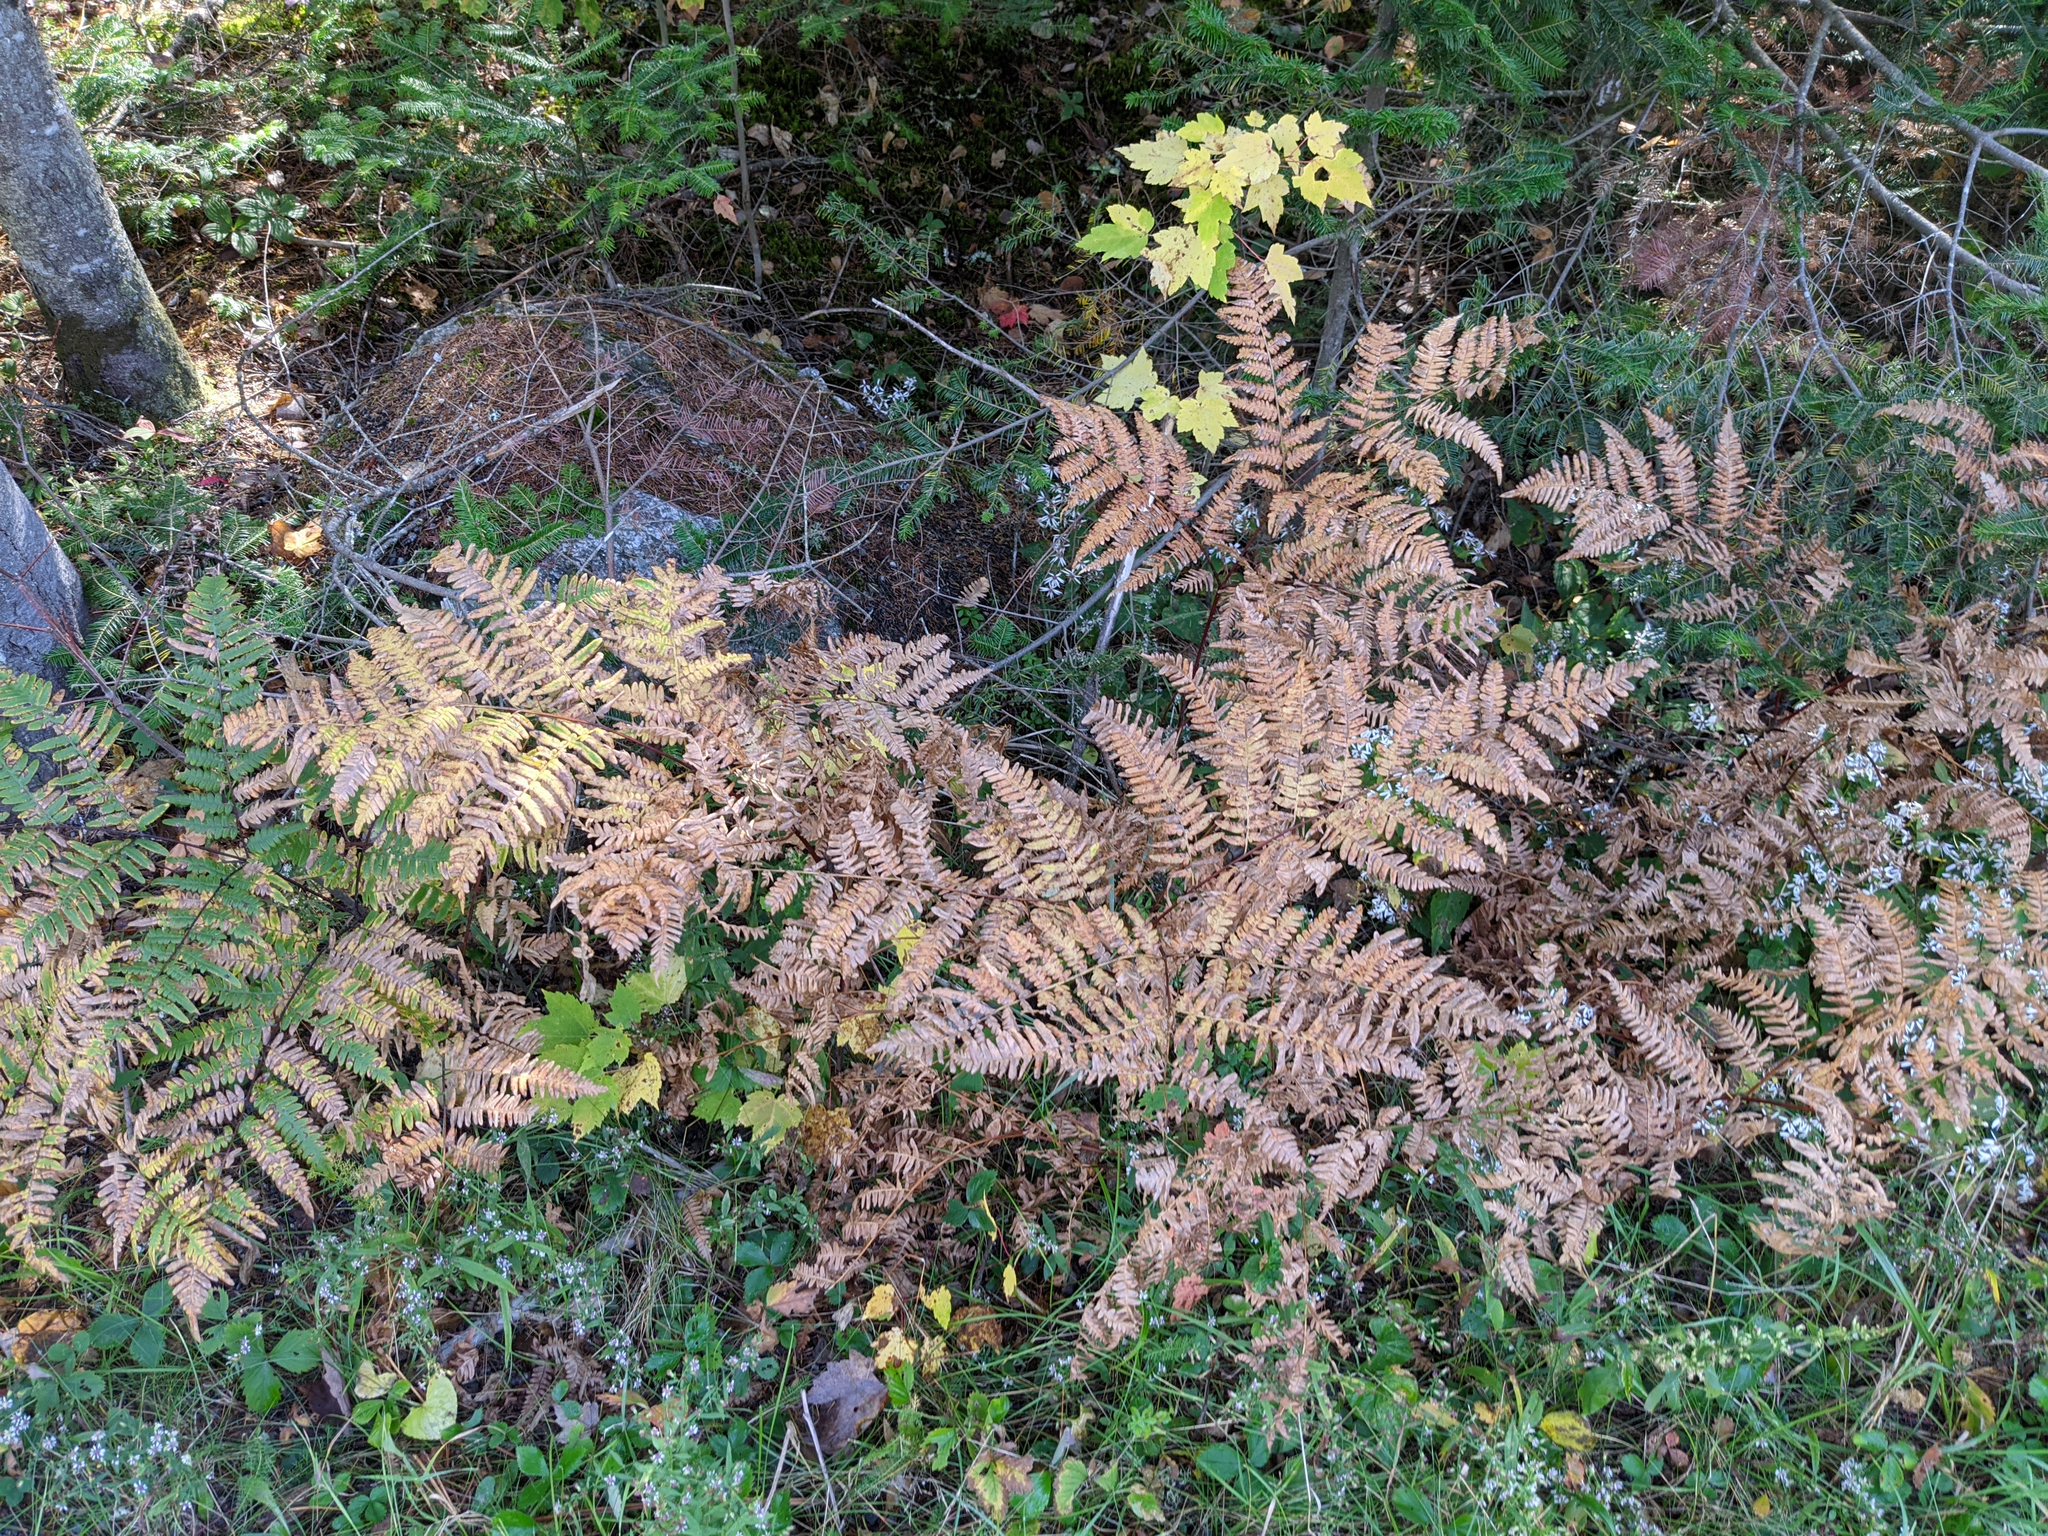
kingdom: Plantae
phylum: Tracheophyta
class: Polypodiopsida
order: Polypodiales
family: Dennstaedtiaceae
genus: Pteridium
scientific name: Pteridium aquilinum
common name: Bracken
